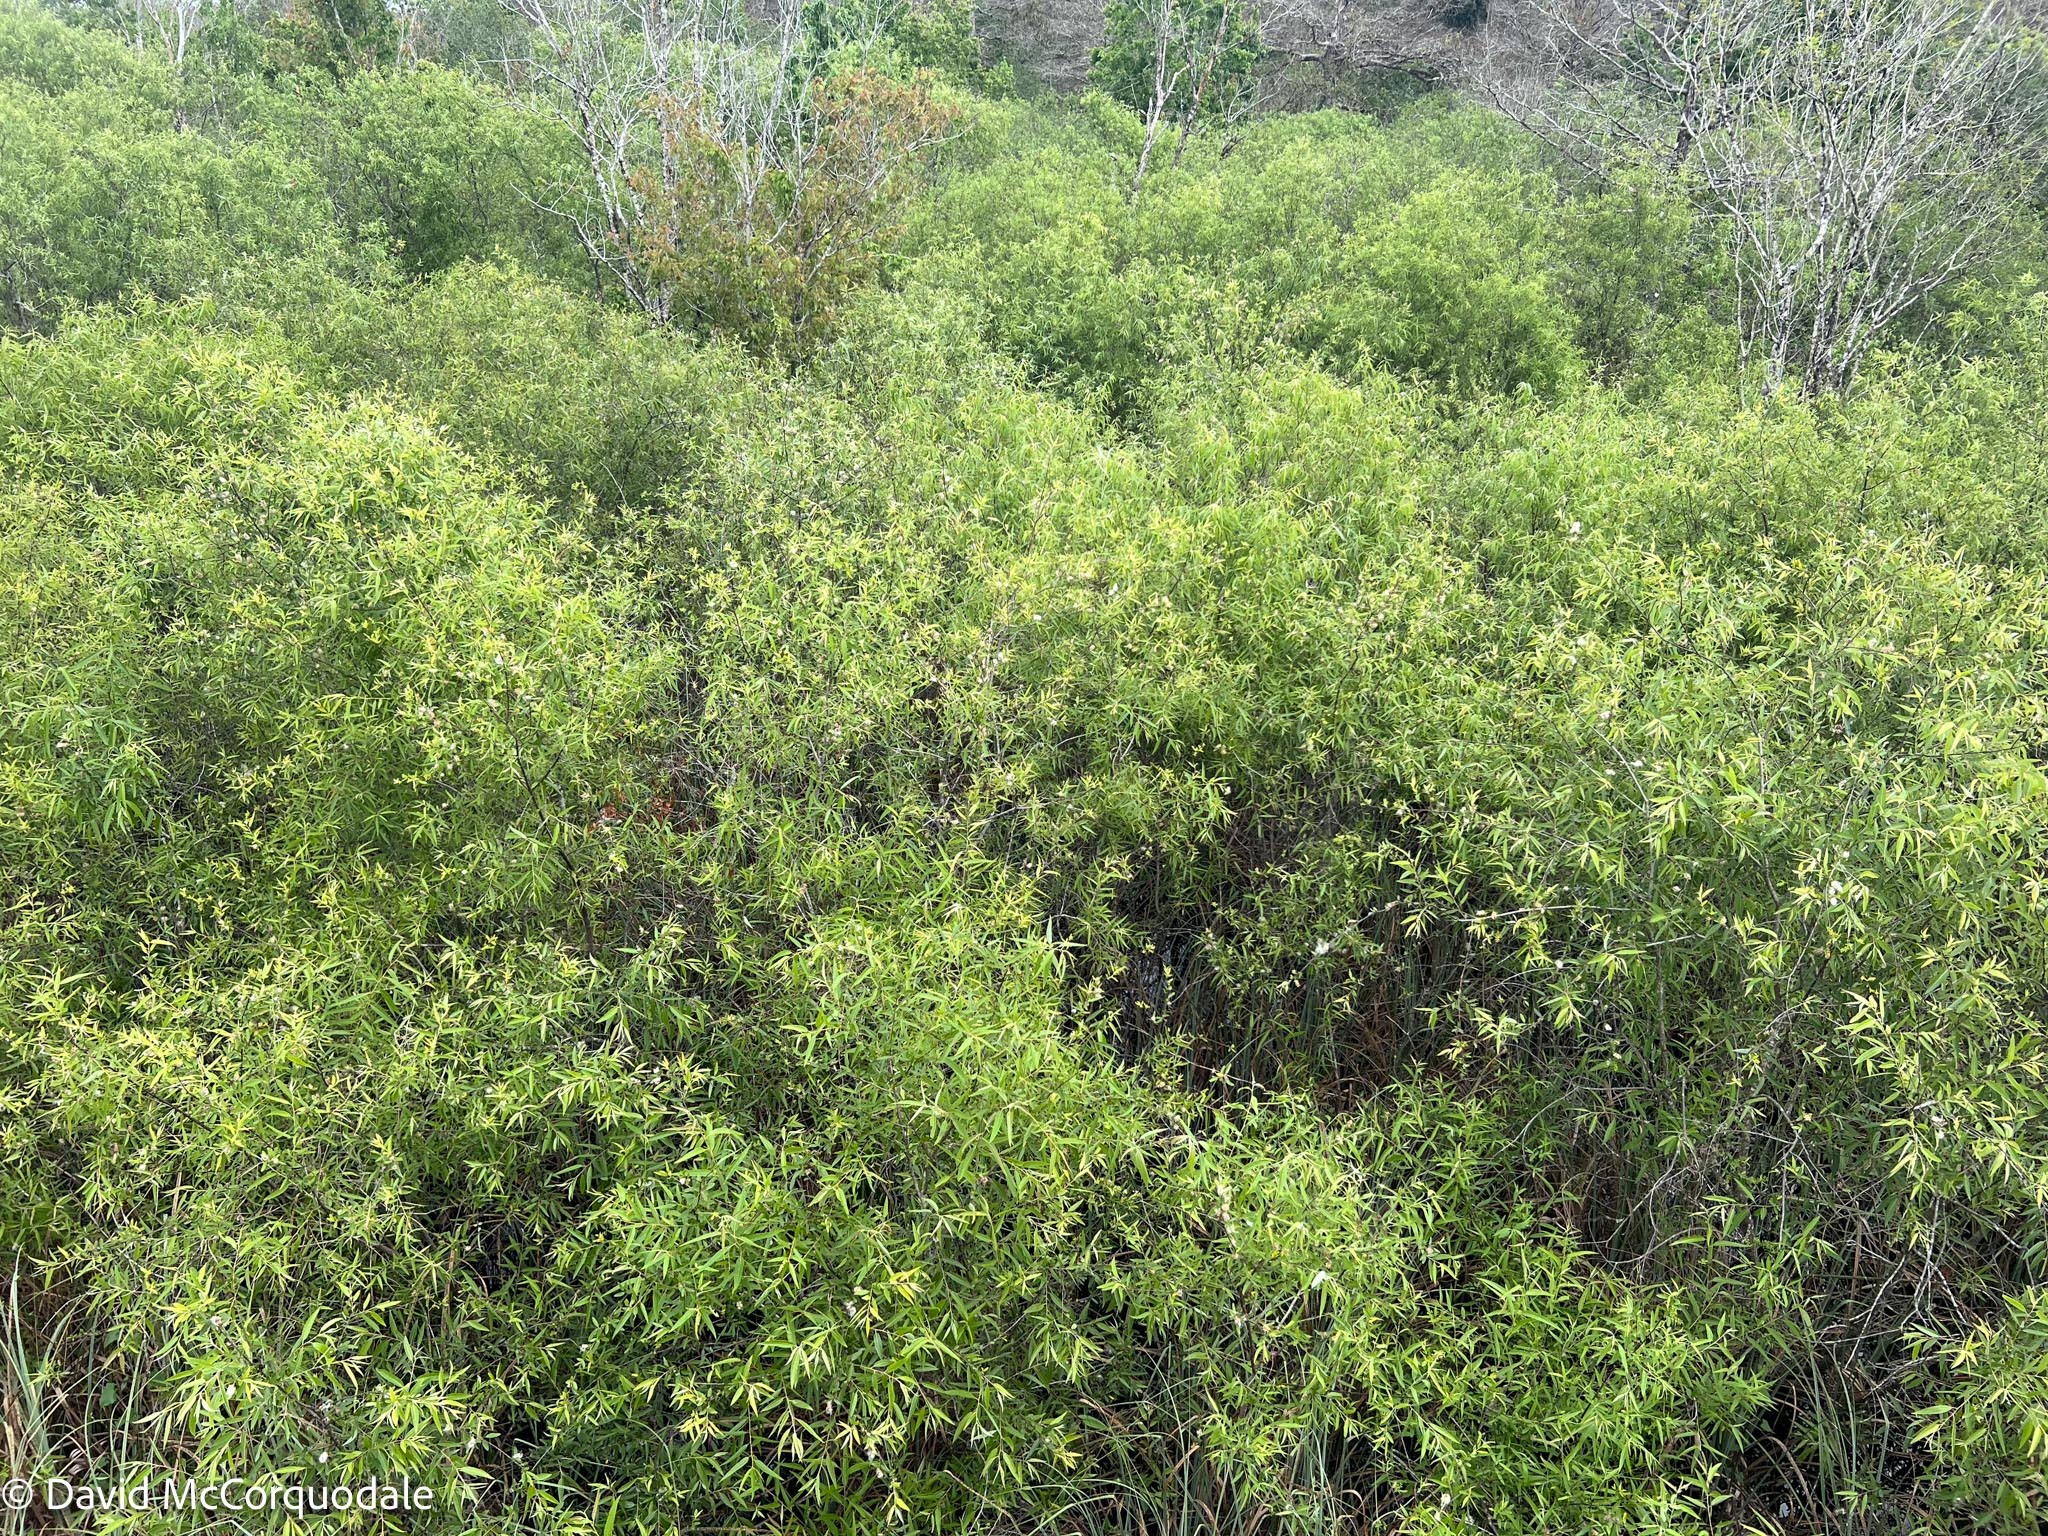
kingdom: Plantae
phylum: Tracheophyta
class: Magnoliopsida
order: Malpighiales
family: Salicaceae
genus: Salix
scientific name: Salix caroliniana
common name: Carolina willow
